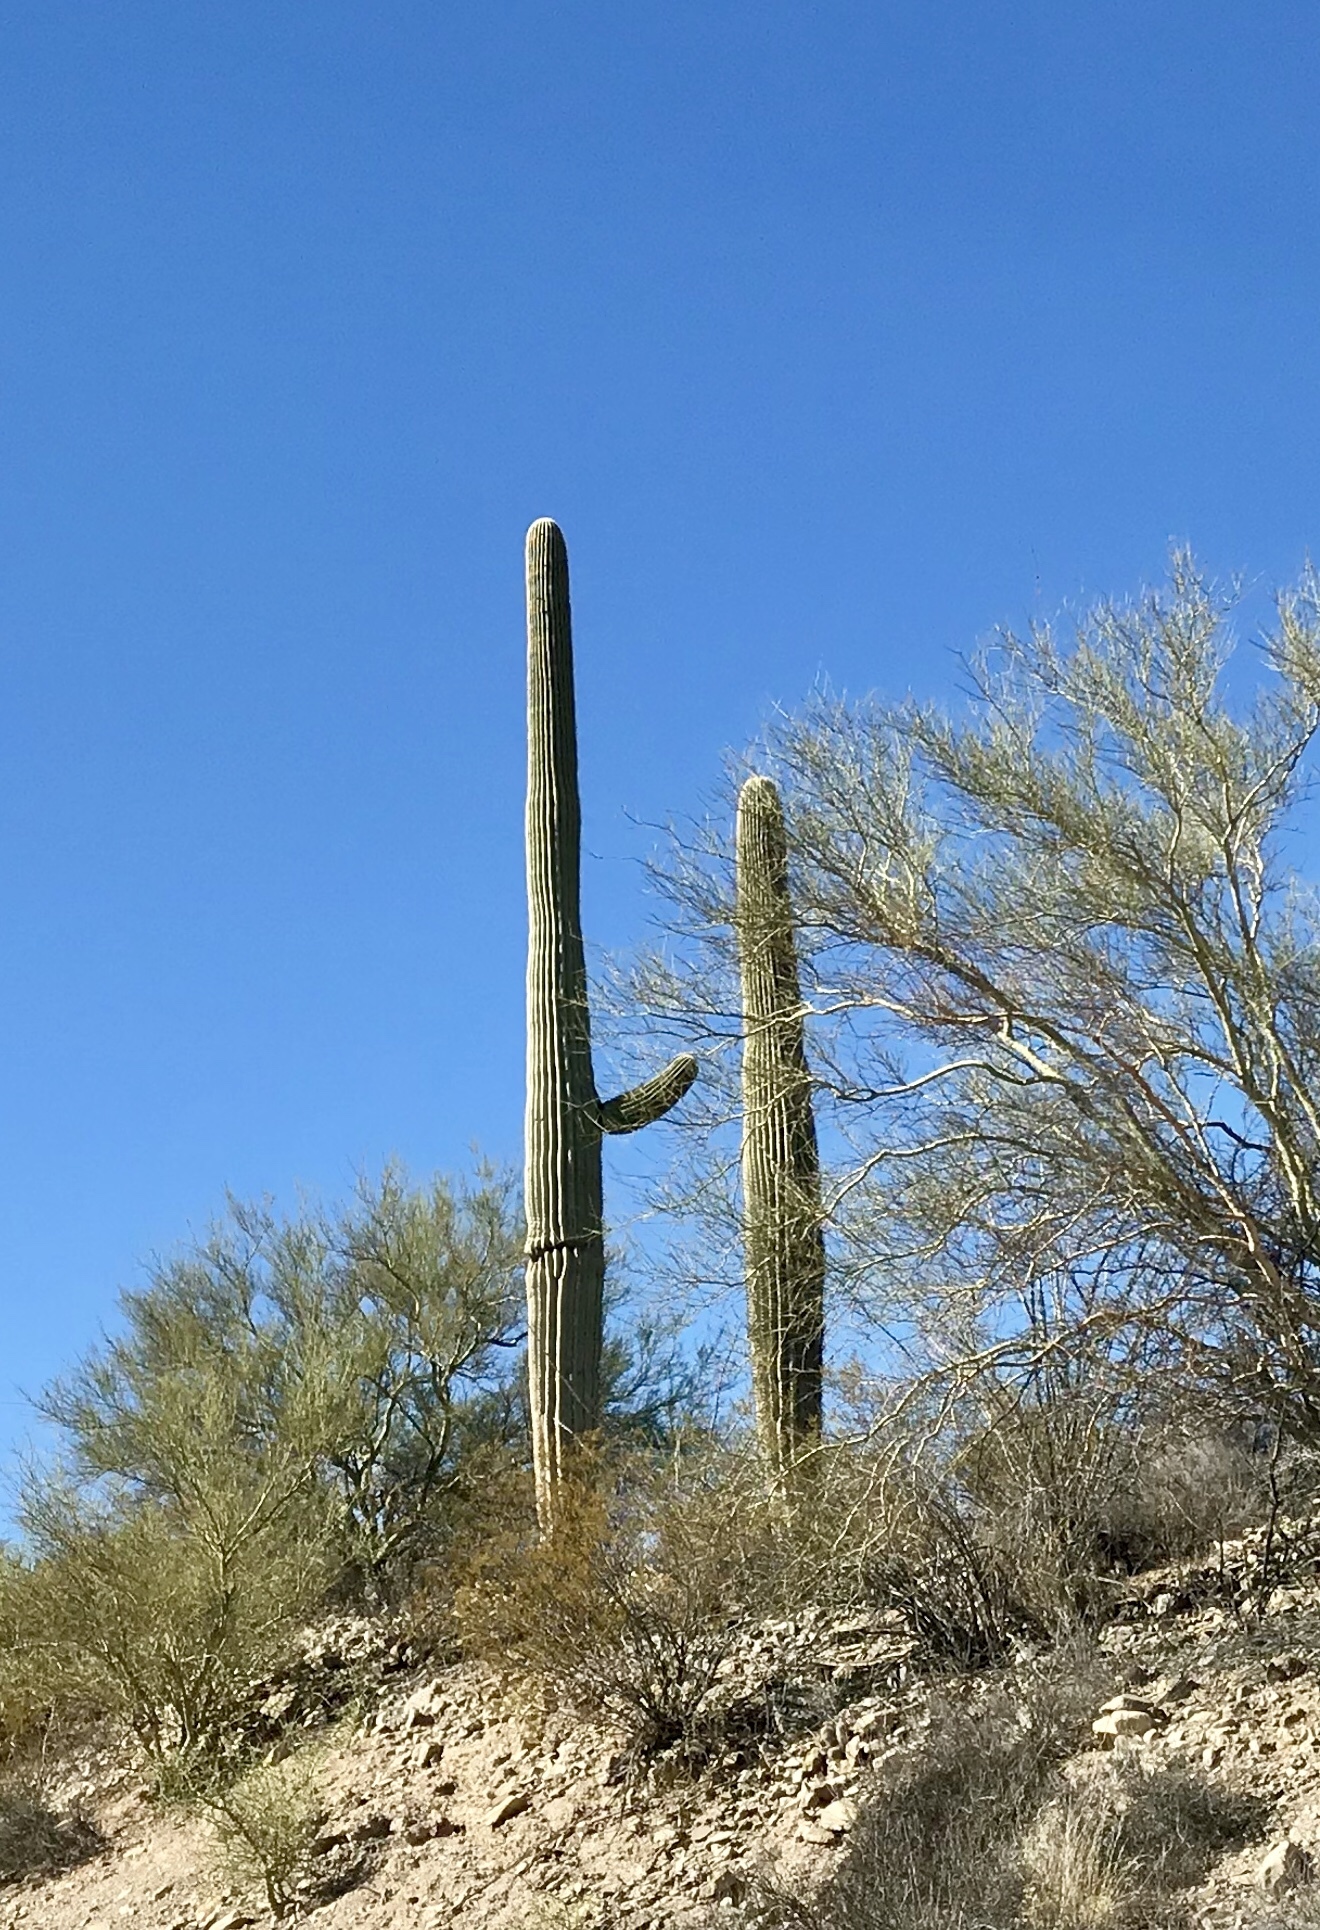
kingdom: Plantae
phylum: Tracheophyta
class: Magnoliopsida
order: Caryophyllales
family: Cactaceae
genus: Carnegiea
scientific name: Carnegiea gigantea
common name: Saguaro
